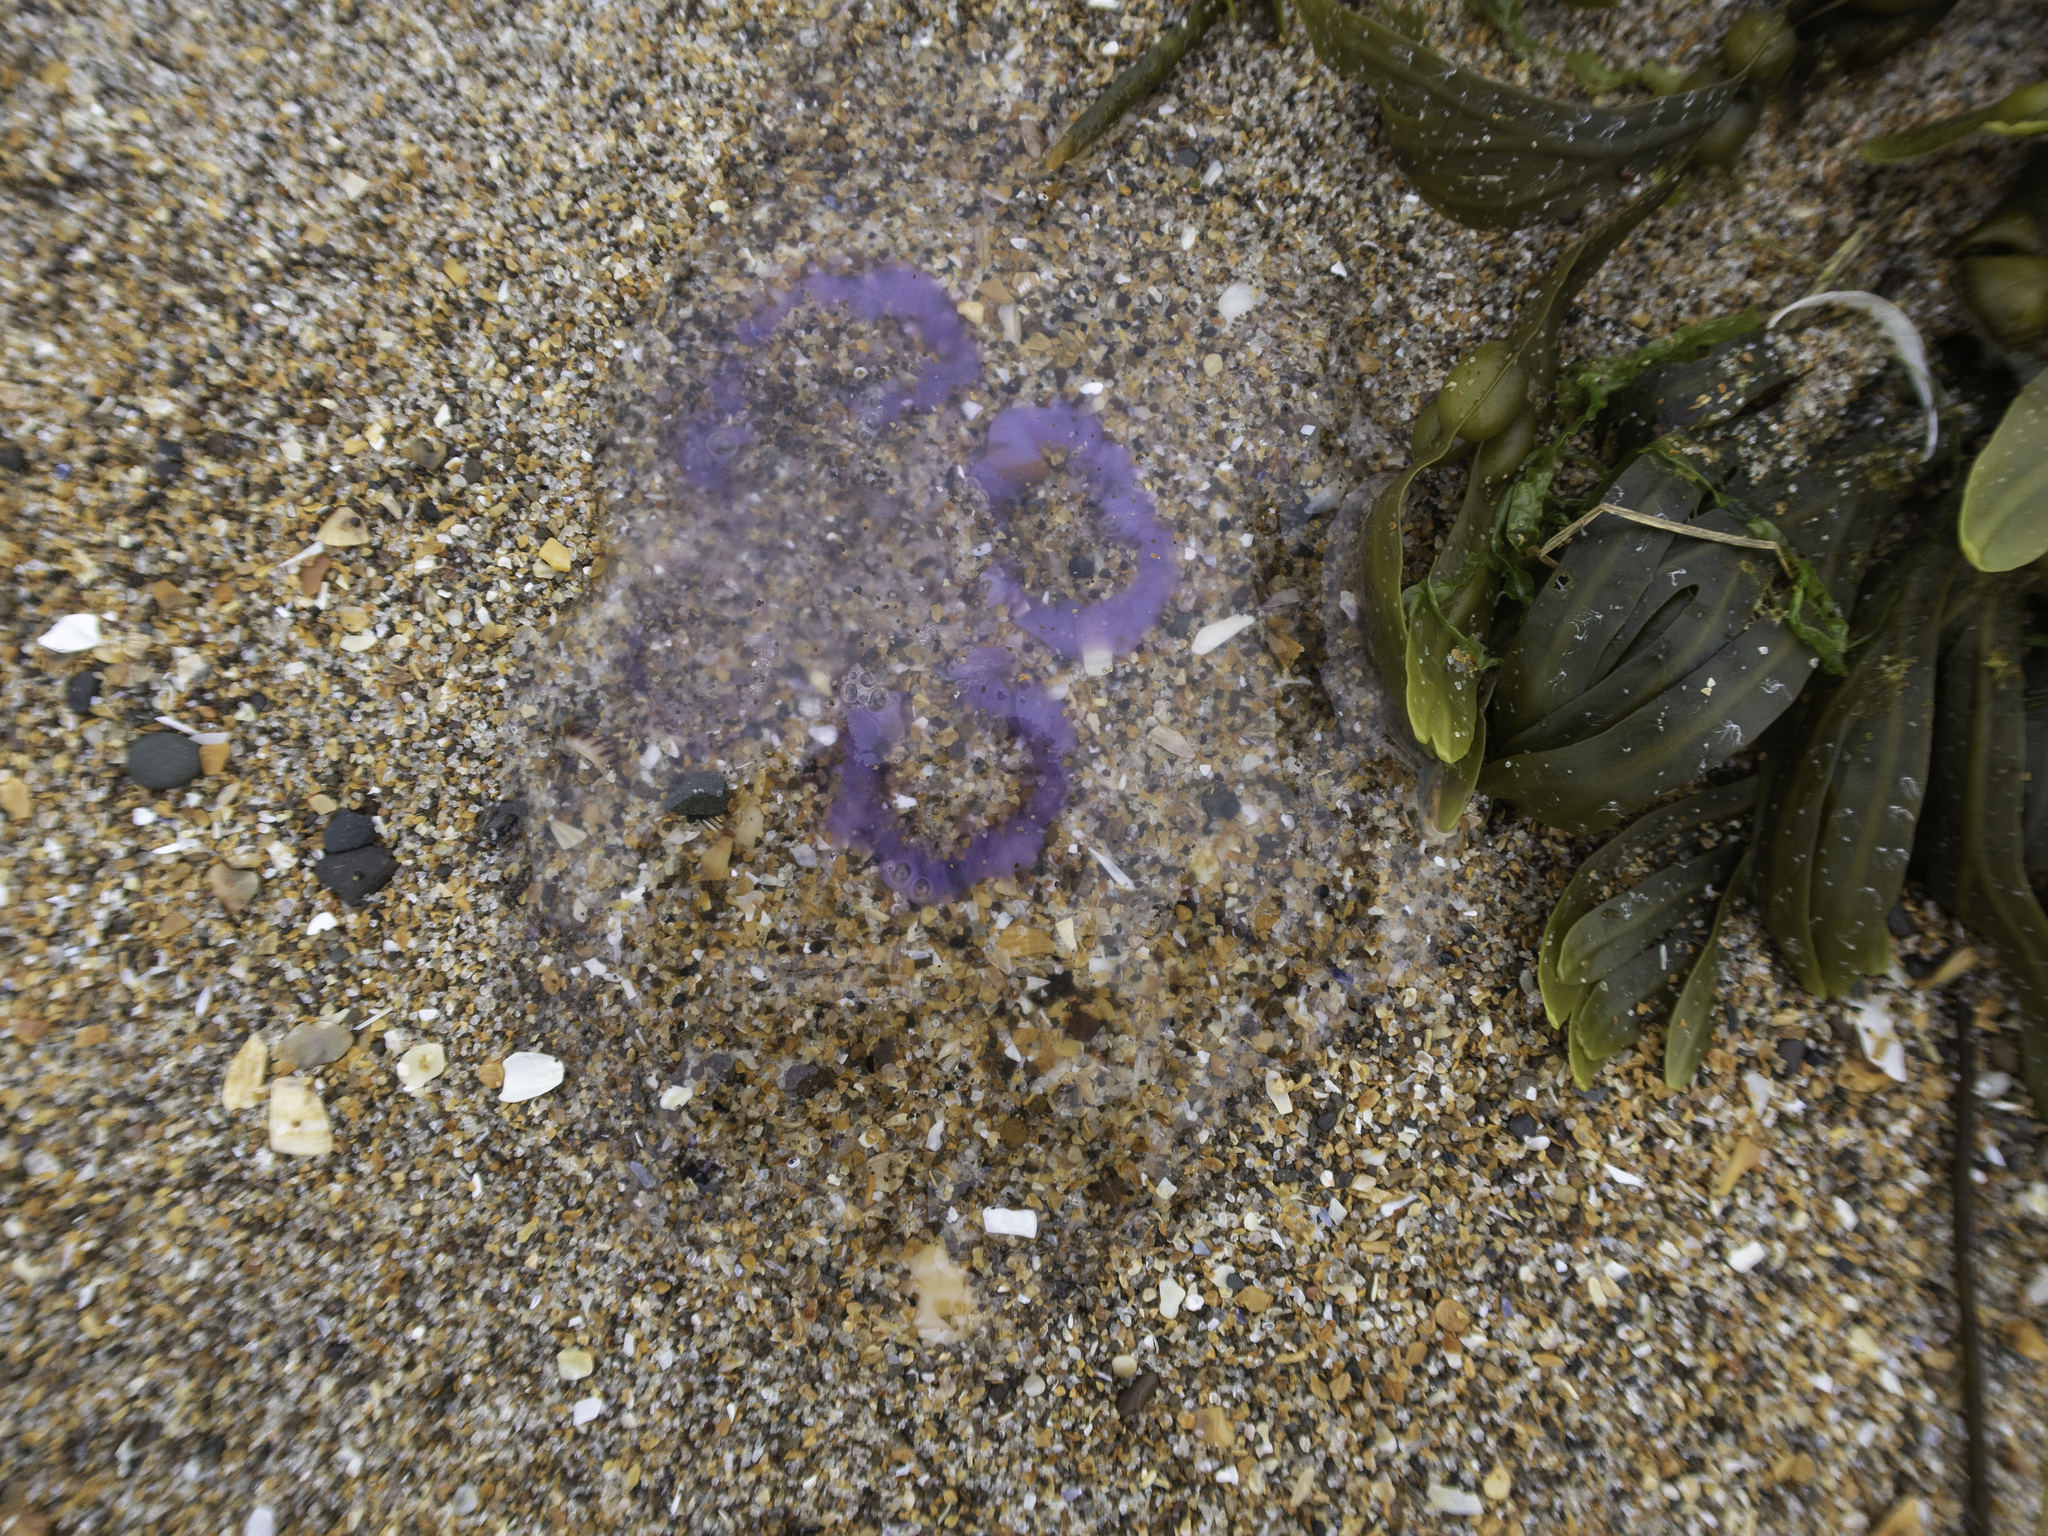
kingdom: Animalia
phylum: Cnidaria
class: Scyphozoa
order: Semaeostomeae
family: Ulmaridae
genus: Aurelia
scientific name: Aurelia aurita
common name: Moon jellyfish
